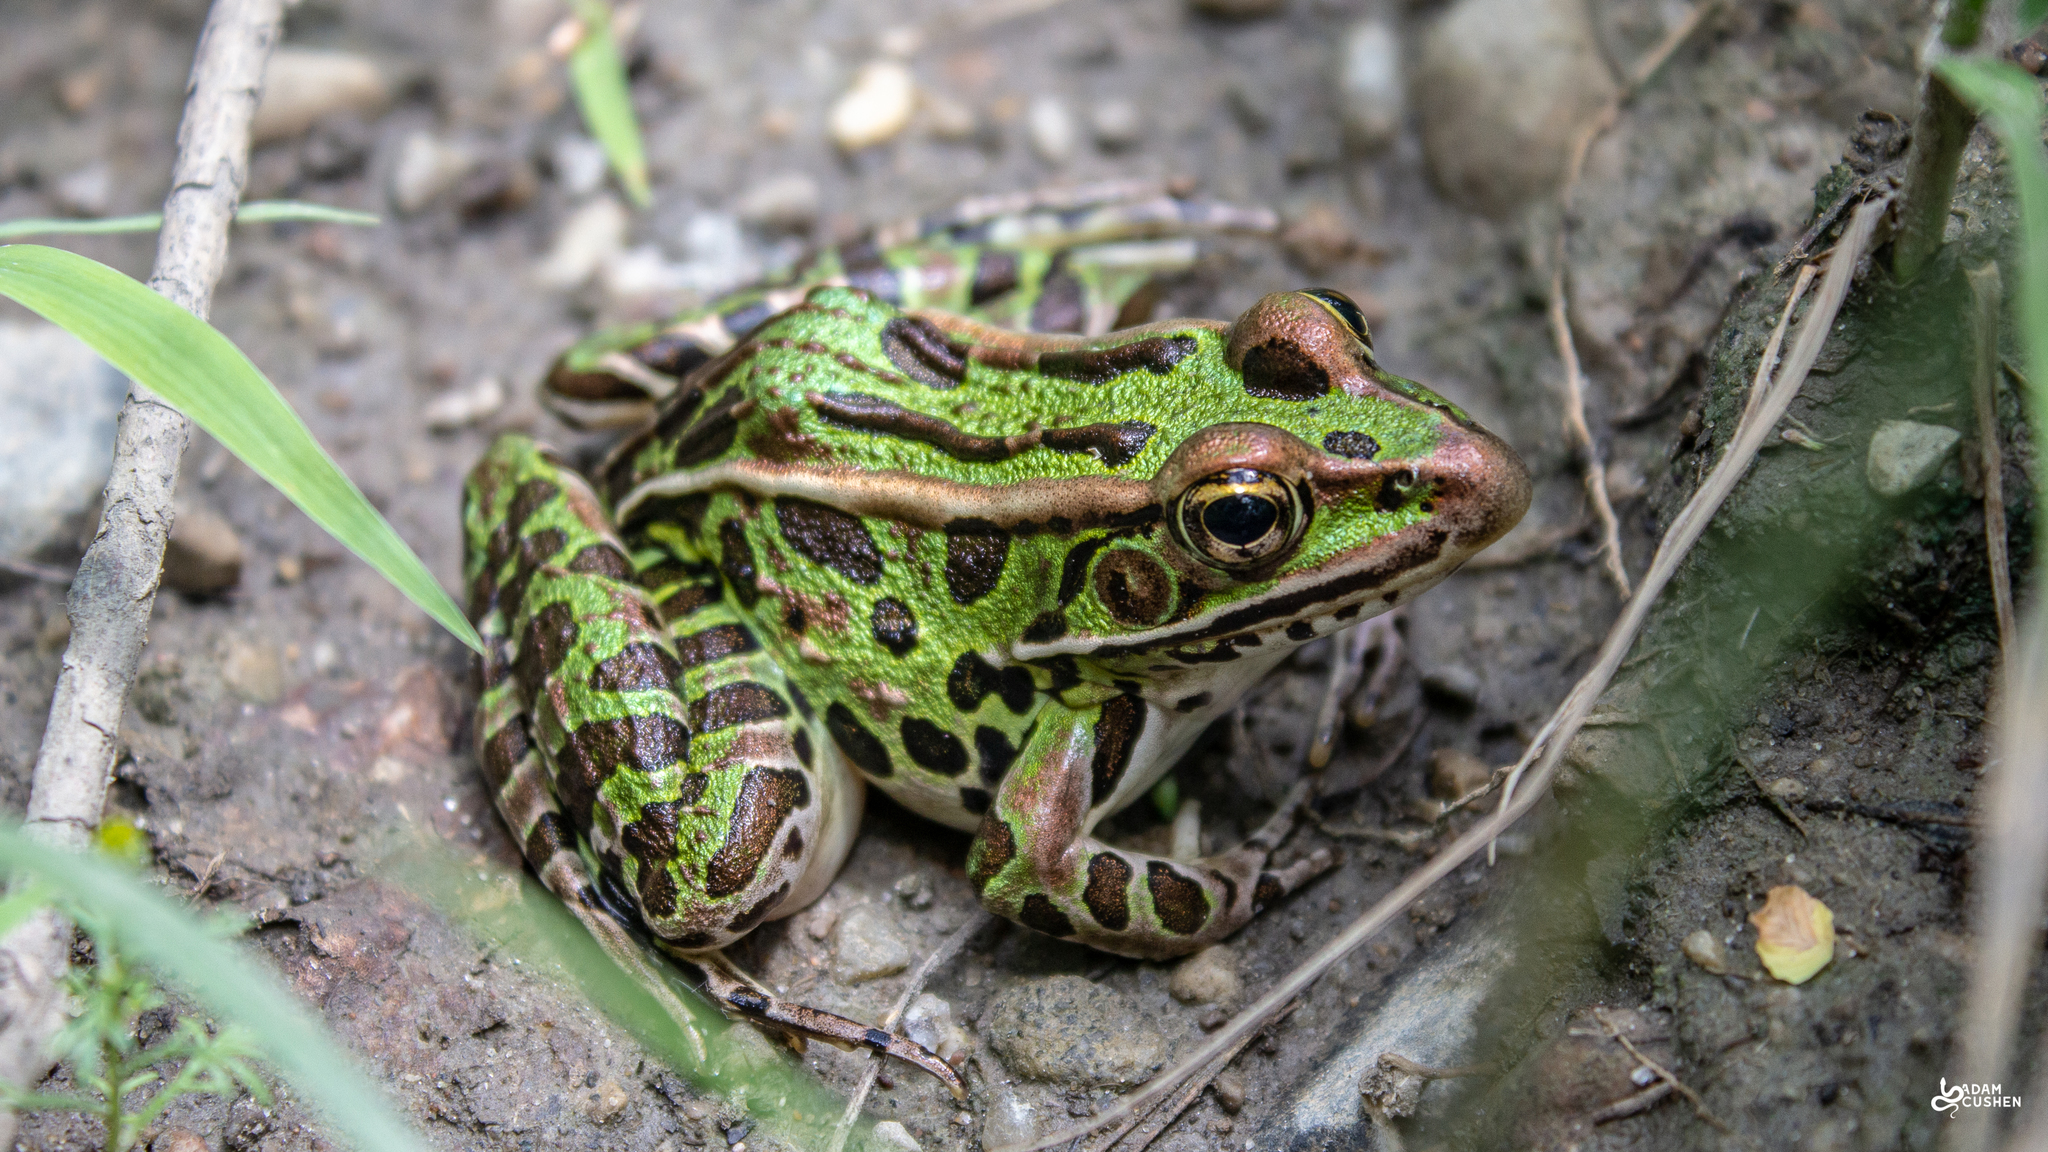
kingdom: Animalia
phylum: Chordata
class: Amphibia
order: Anura
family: Ranidae
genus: Lithobates
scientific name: Lithobates pipiens
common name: Northern leopard frog
